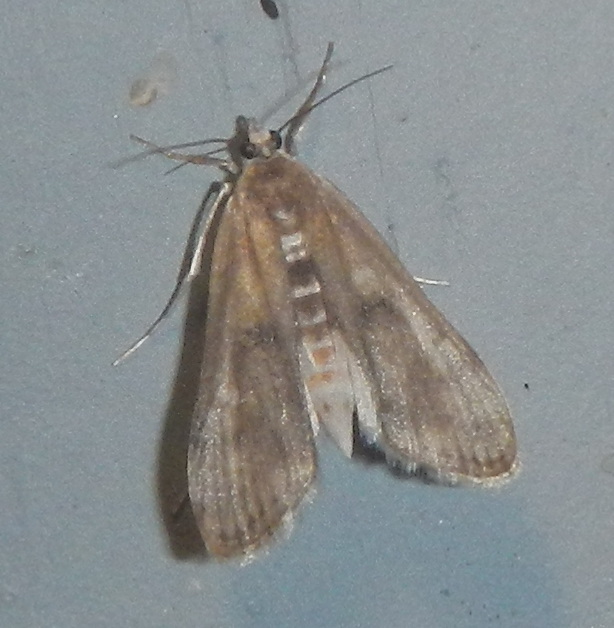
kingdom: Animalia
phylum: Arthropoda
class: Insecta
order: Lepidoptera
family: Crambidae
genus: Parapoynx
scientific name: Parapoynx maculalis
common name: Polymorphic pondweed moth
